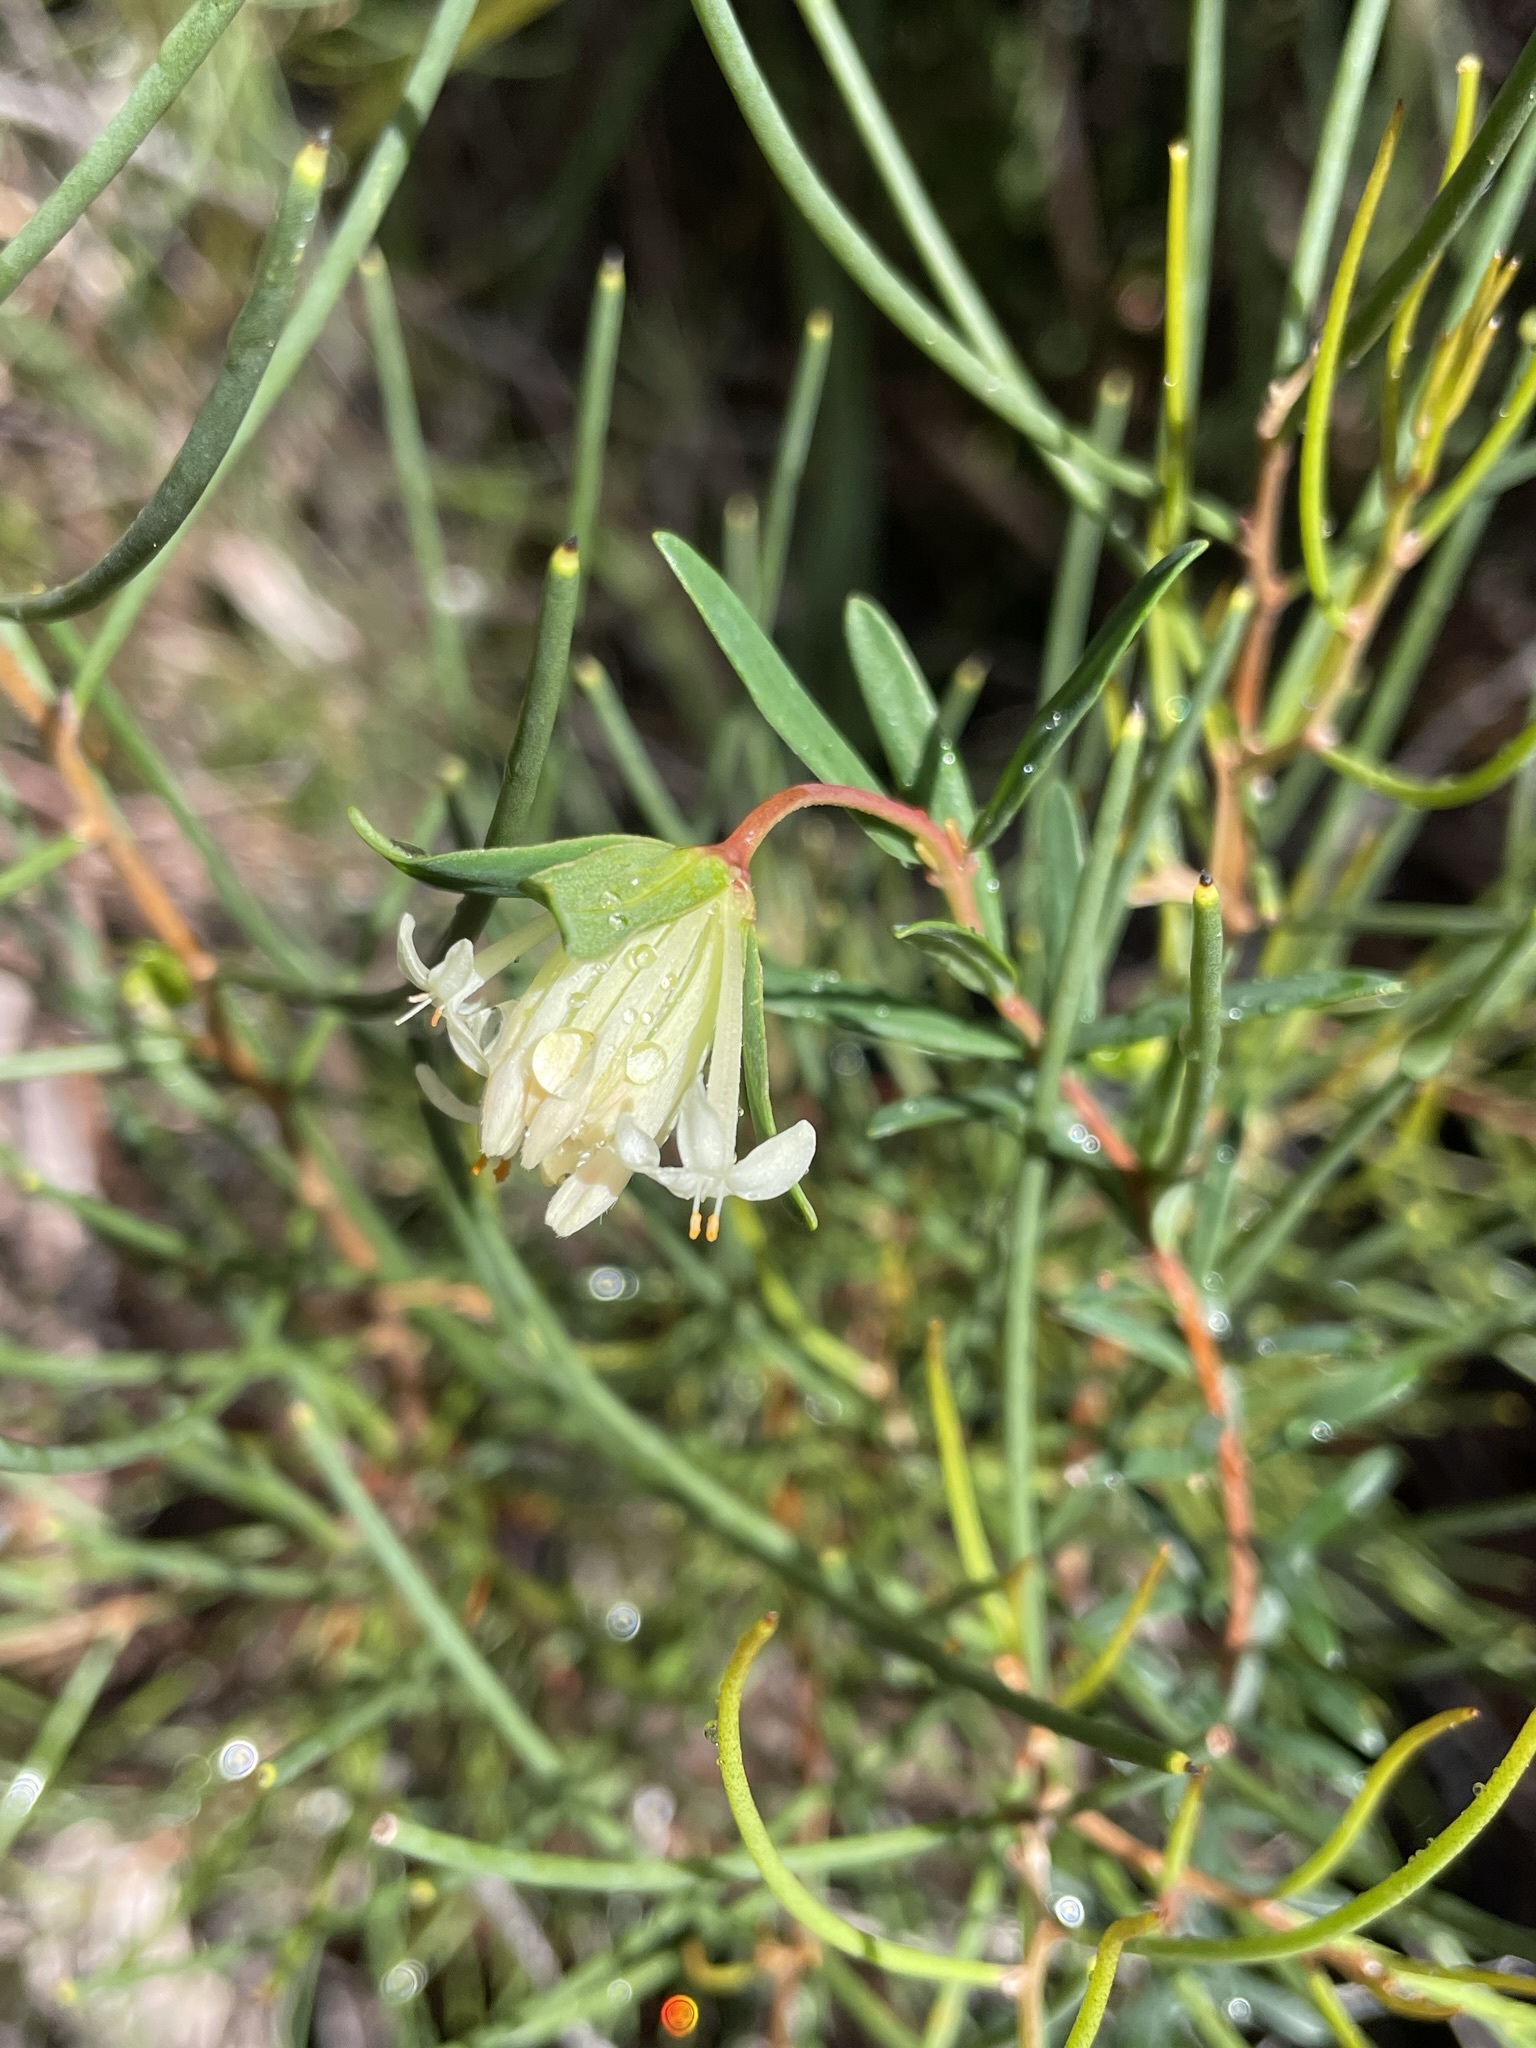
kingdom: Plantae
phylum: Tracheophyta
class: Magnoliopsida
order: Malvales
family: Thymelaeaceae
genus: Pimelea
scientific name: Pimelea linifolia
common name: Queen-of-the-bush
